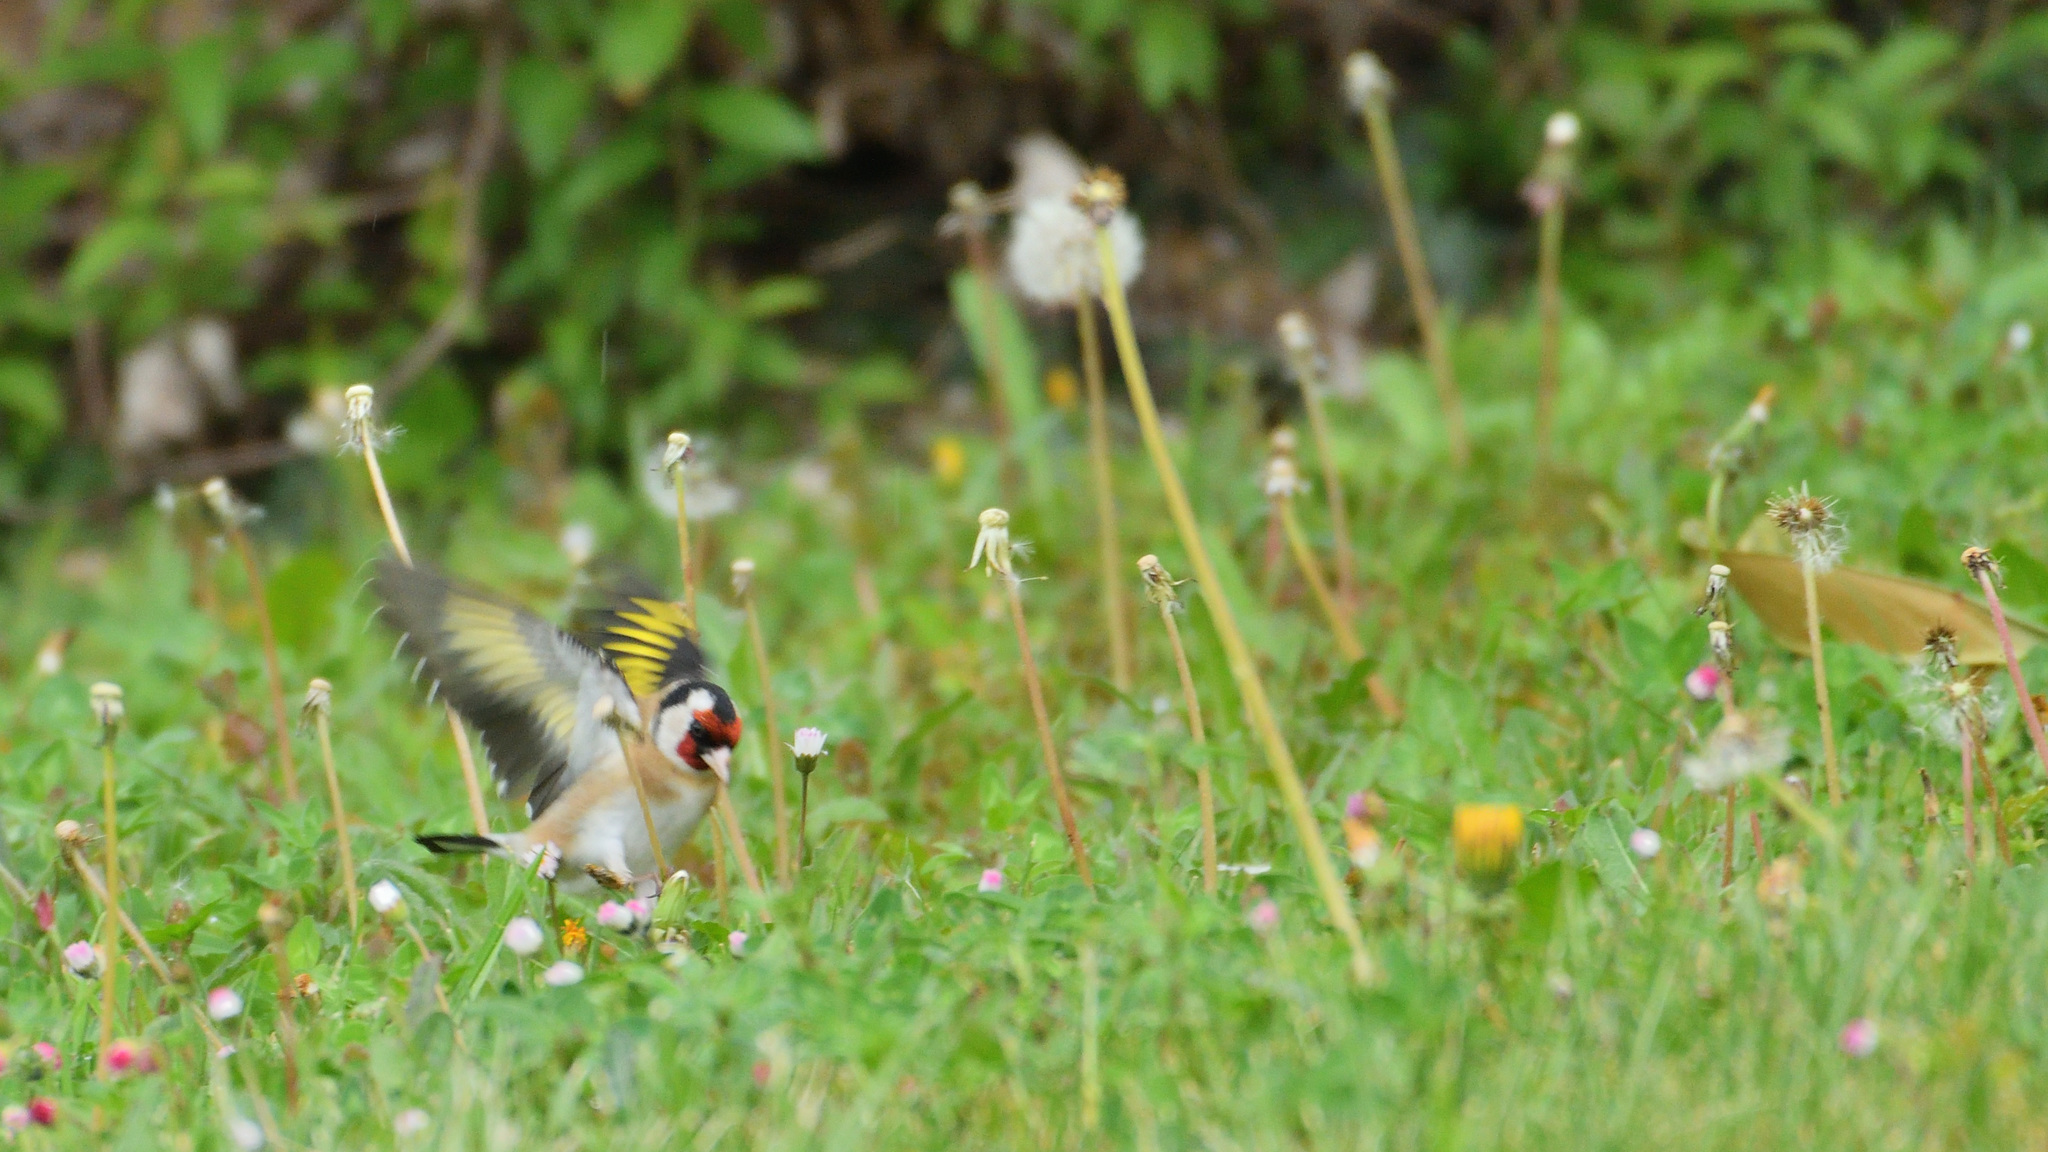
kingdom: Animalia
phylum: Chordata
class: Aves
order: Passeriformes
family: Fringillidae
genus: Carduelis
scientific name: Carduelis carduelis
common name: European goldfinch
